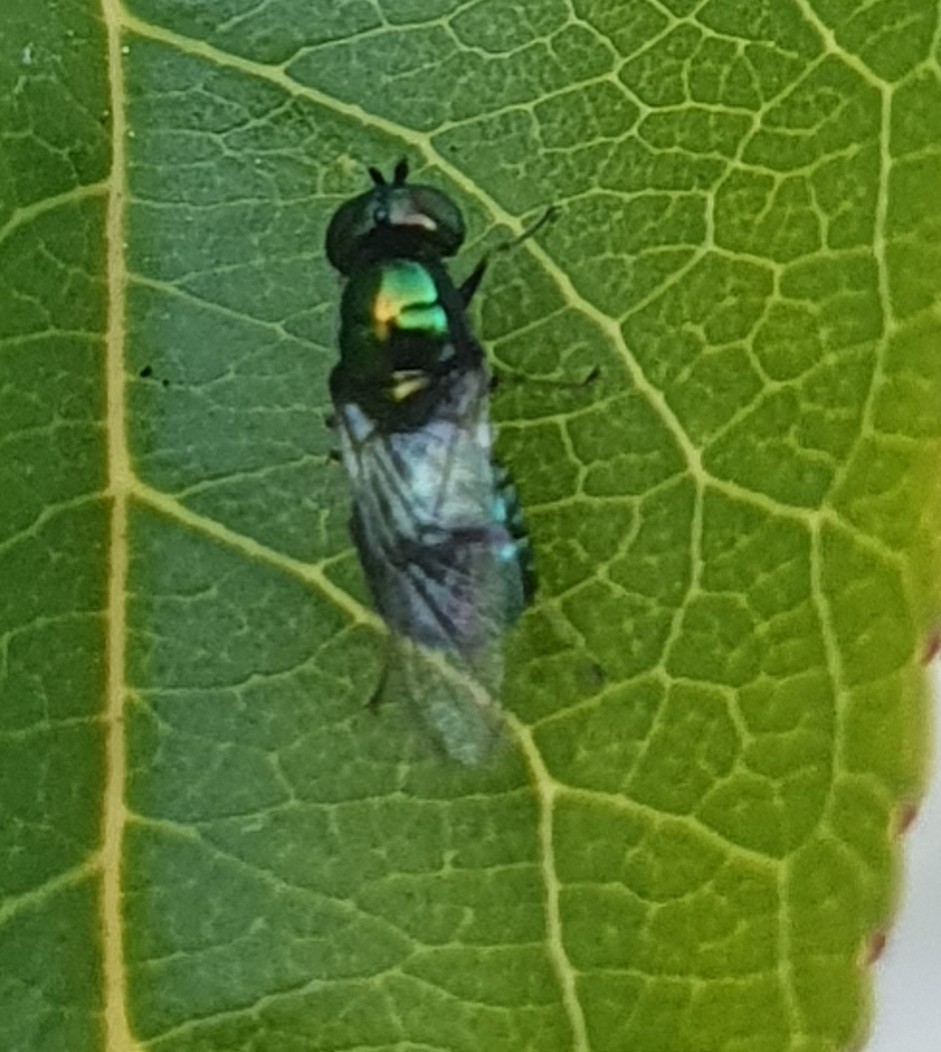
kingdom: Animalia
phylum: Arthropoda
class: Insecta
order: Diptera
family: Stratiomyidae
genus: Microchrysa
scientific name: Microchrysa polita
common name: Black-horned gem
